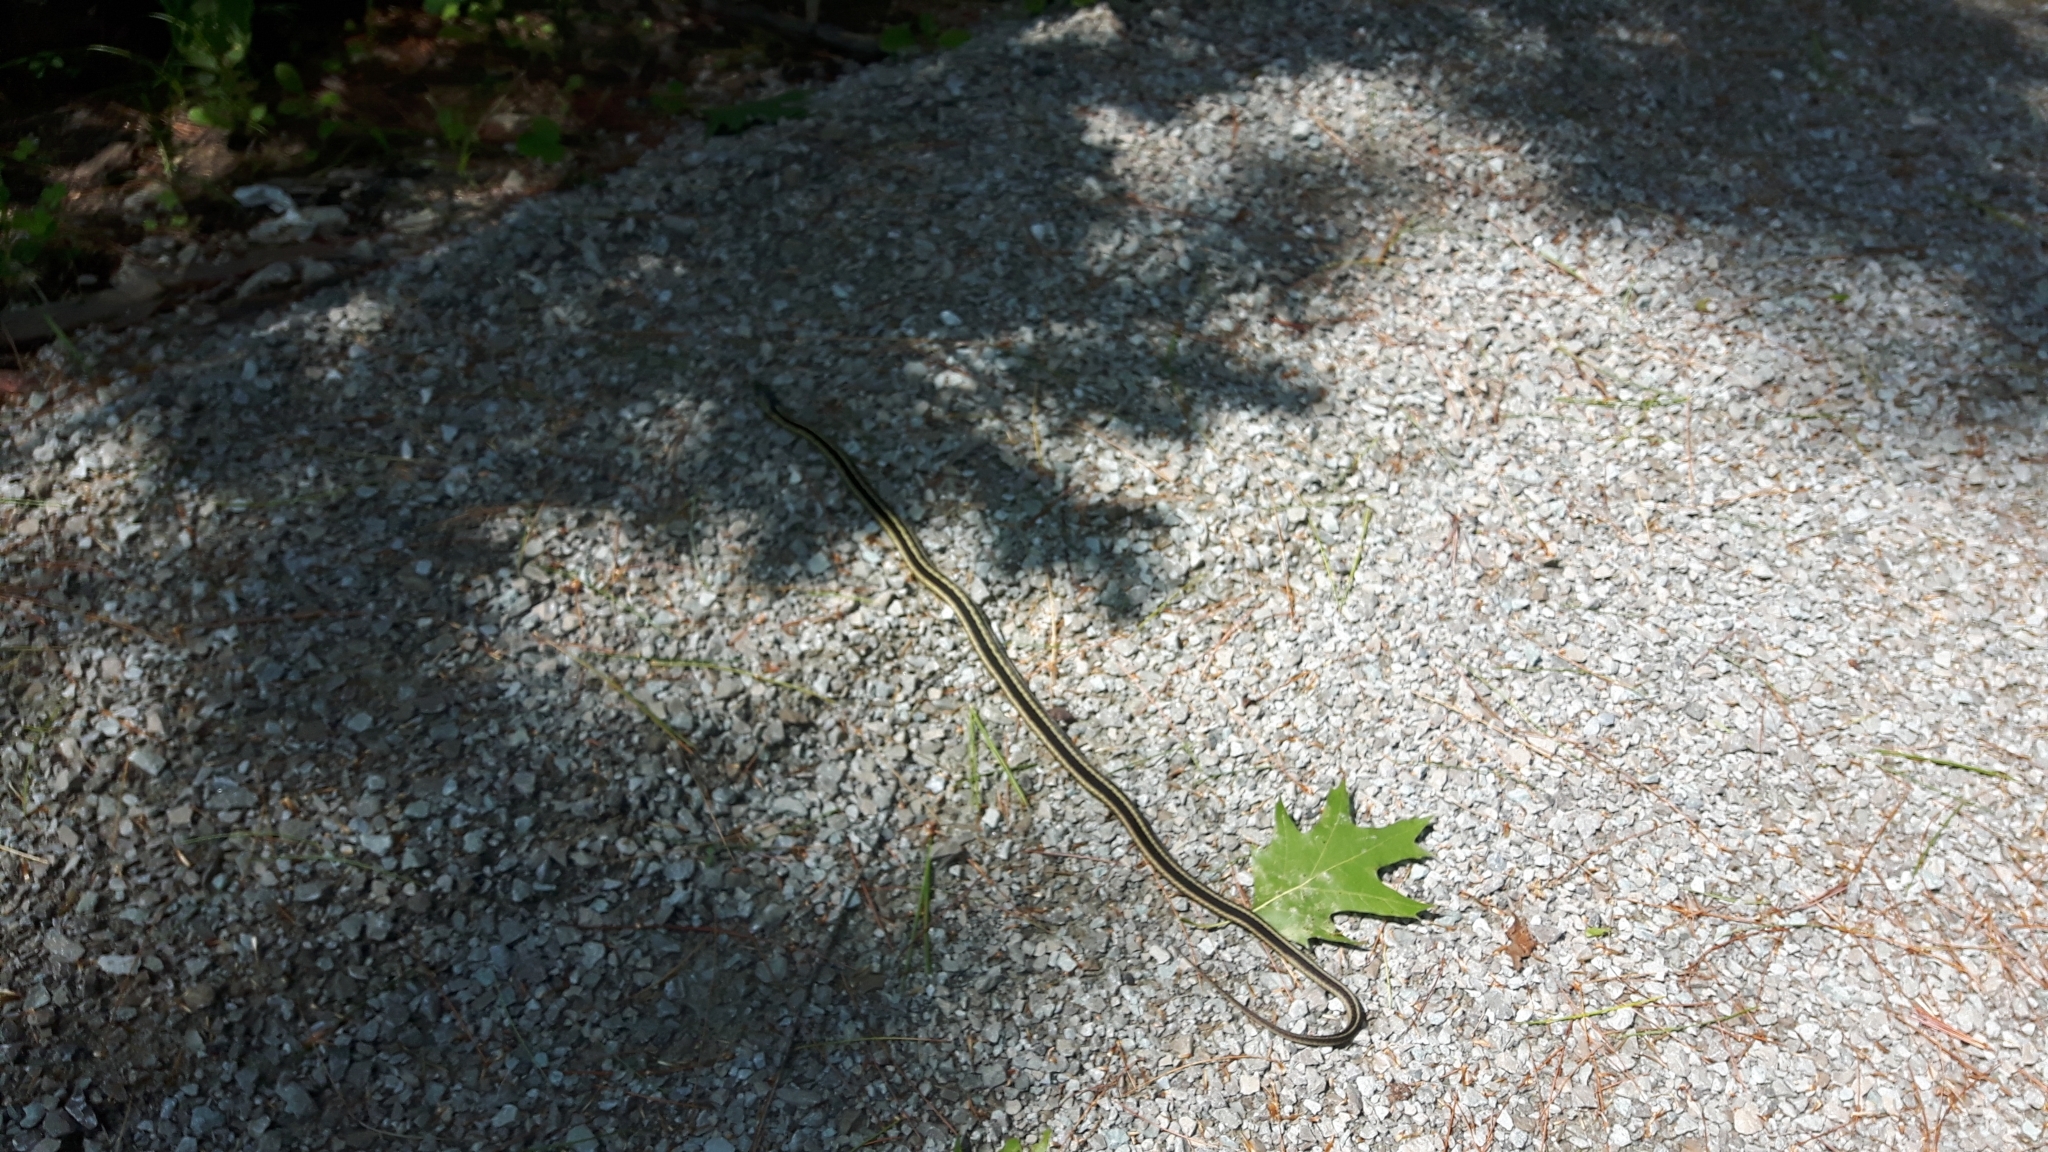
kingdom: Animalia
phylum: Chordata
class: Squamata
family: Colubridae
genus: Thamnophis
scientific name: Thamnophis sirtalis
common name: Common garter snake
